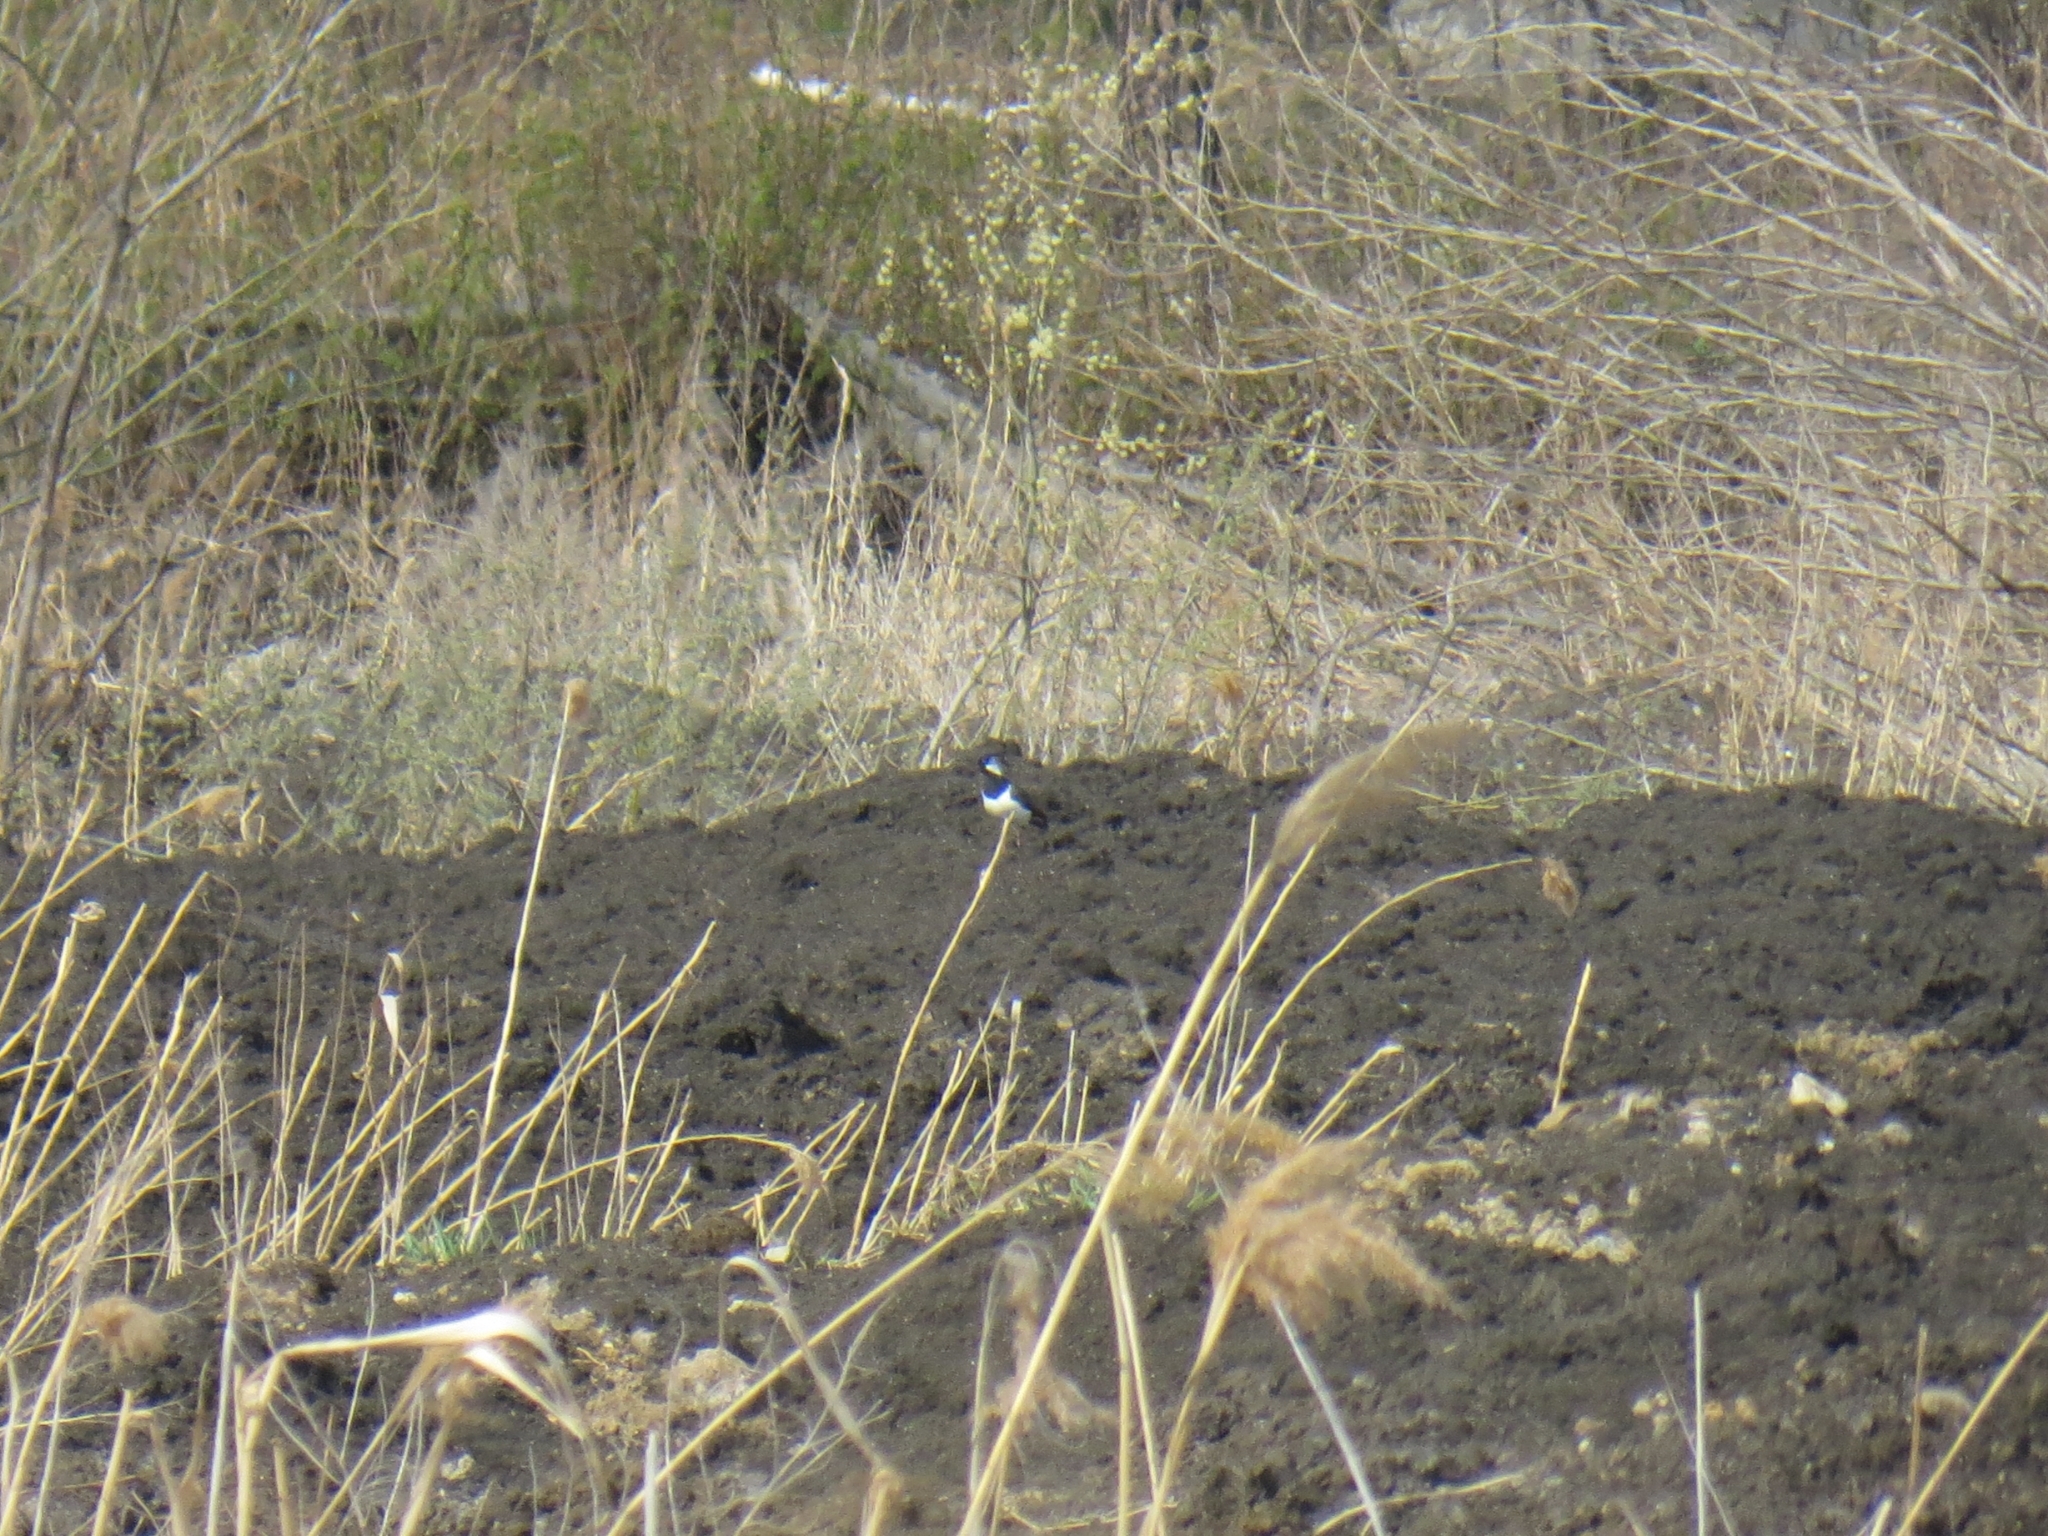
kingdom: Animalia
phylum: Chordata
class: Aves
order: Charadriiformes
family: Charadriidae
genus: Vanellus
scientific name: Vanellus vanellus
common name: Northern lapwing
